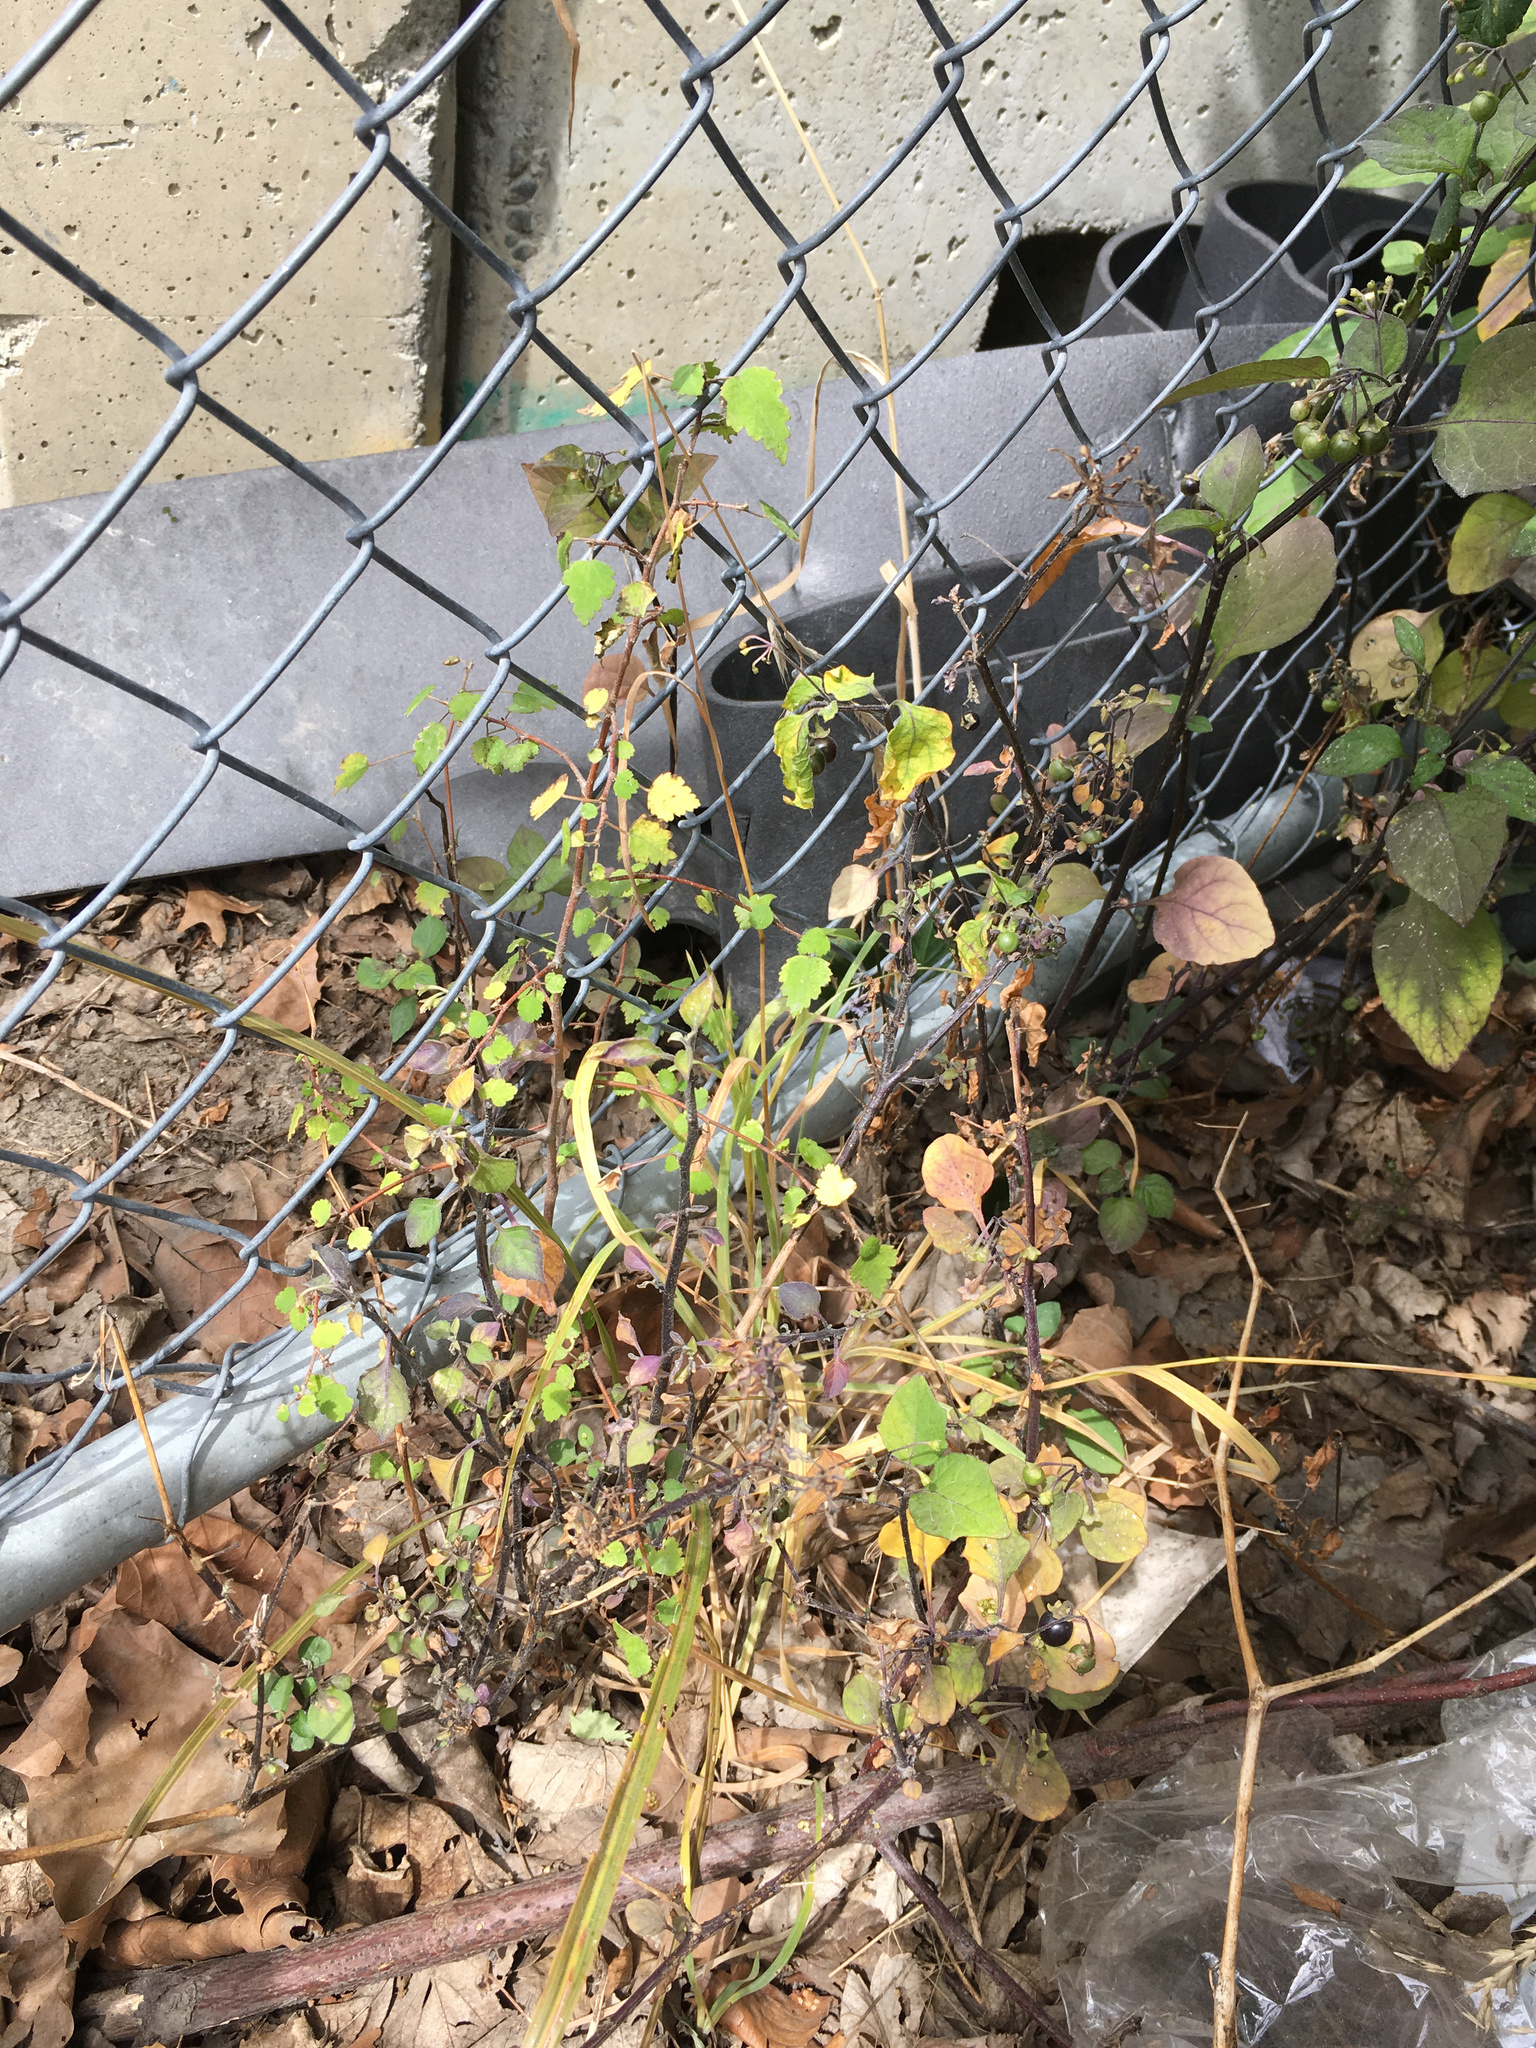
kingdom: Plantae
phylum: Tracheophyta
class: Magnoliopsida
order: Malvales
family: Malvaceae
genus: Plagianthus
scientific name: Plagianthus regius
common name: Manatu
